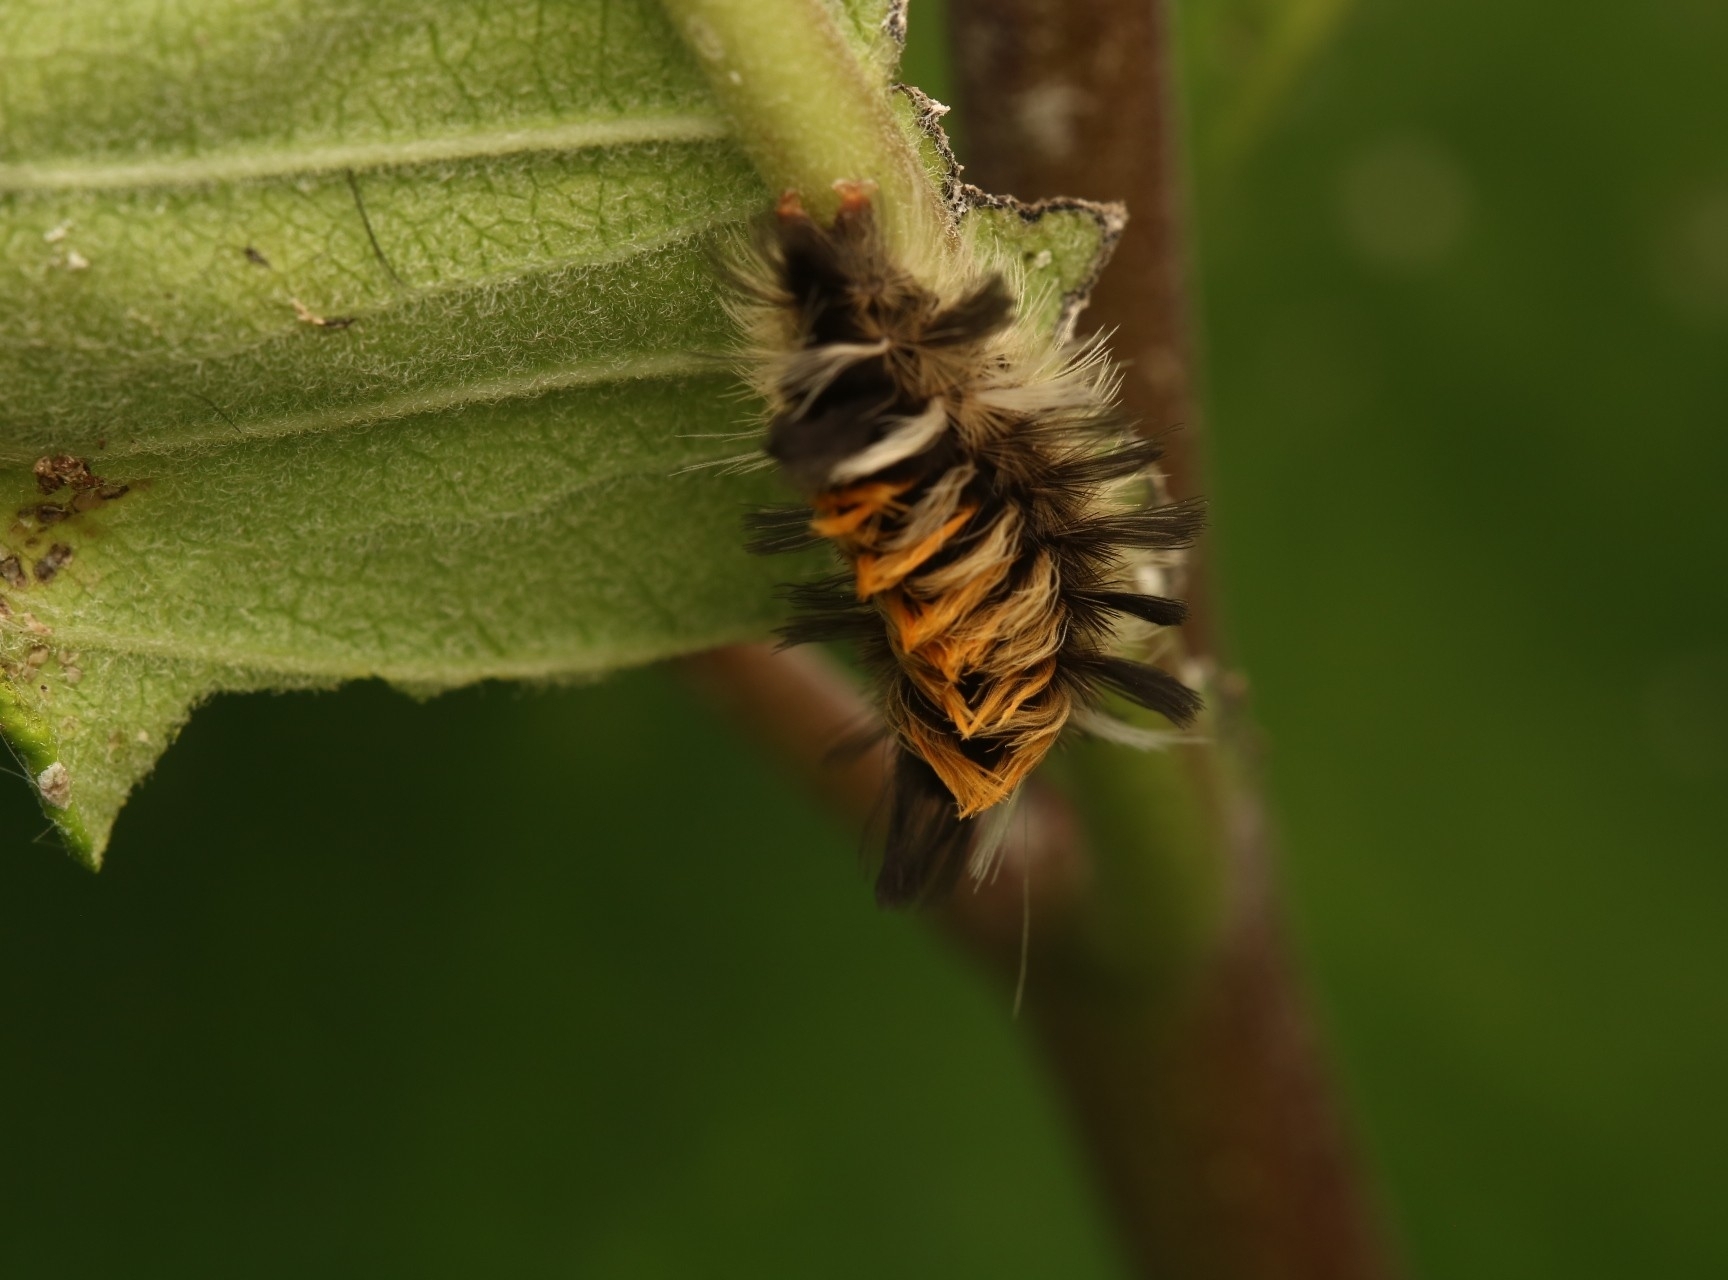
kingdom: Animalia
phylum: Arthropoda
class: Insecta
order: Lepidoptera
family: Erebidae
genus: Euchaetes
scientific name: Euchaetes egle
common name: Milkweed tussock moth
